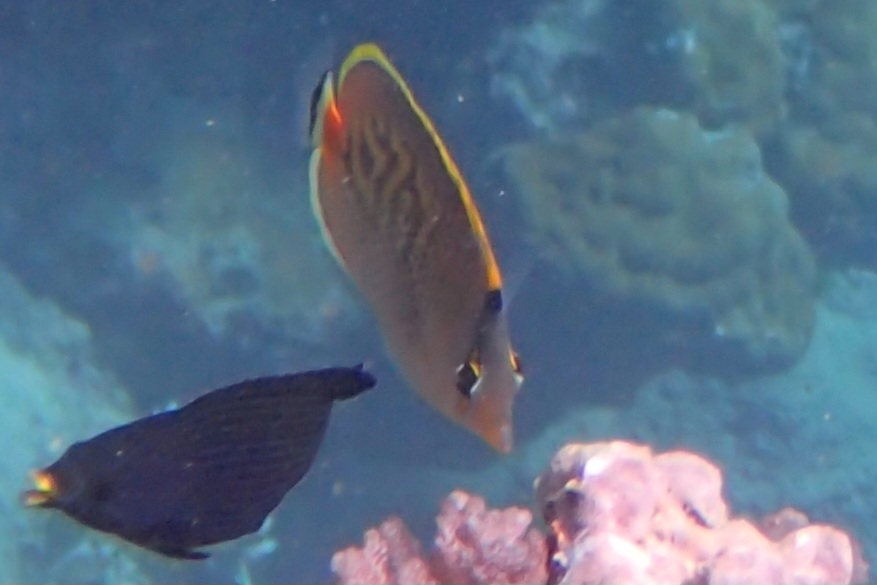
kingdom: Animalia
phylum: Chordata
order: Perciformes
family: Chaetodontidae
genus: Chaetodon
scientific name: Chaetodon punctatofasciatus
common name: Spot-banded butterflyfish
